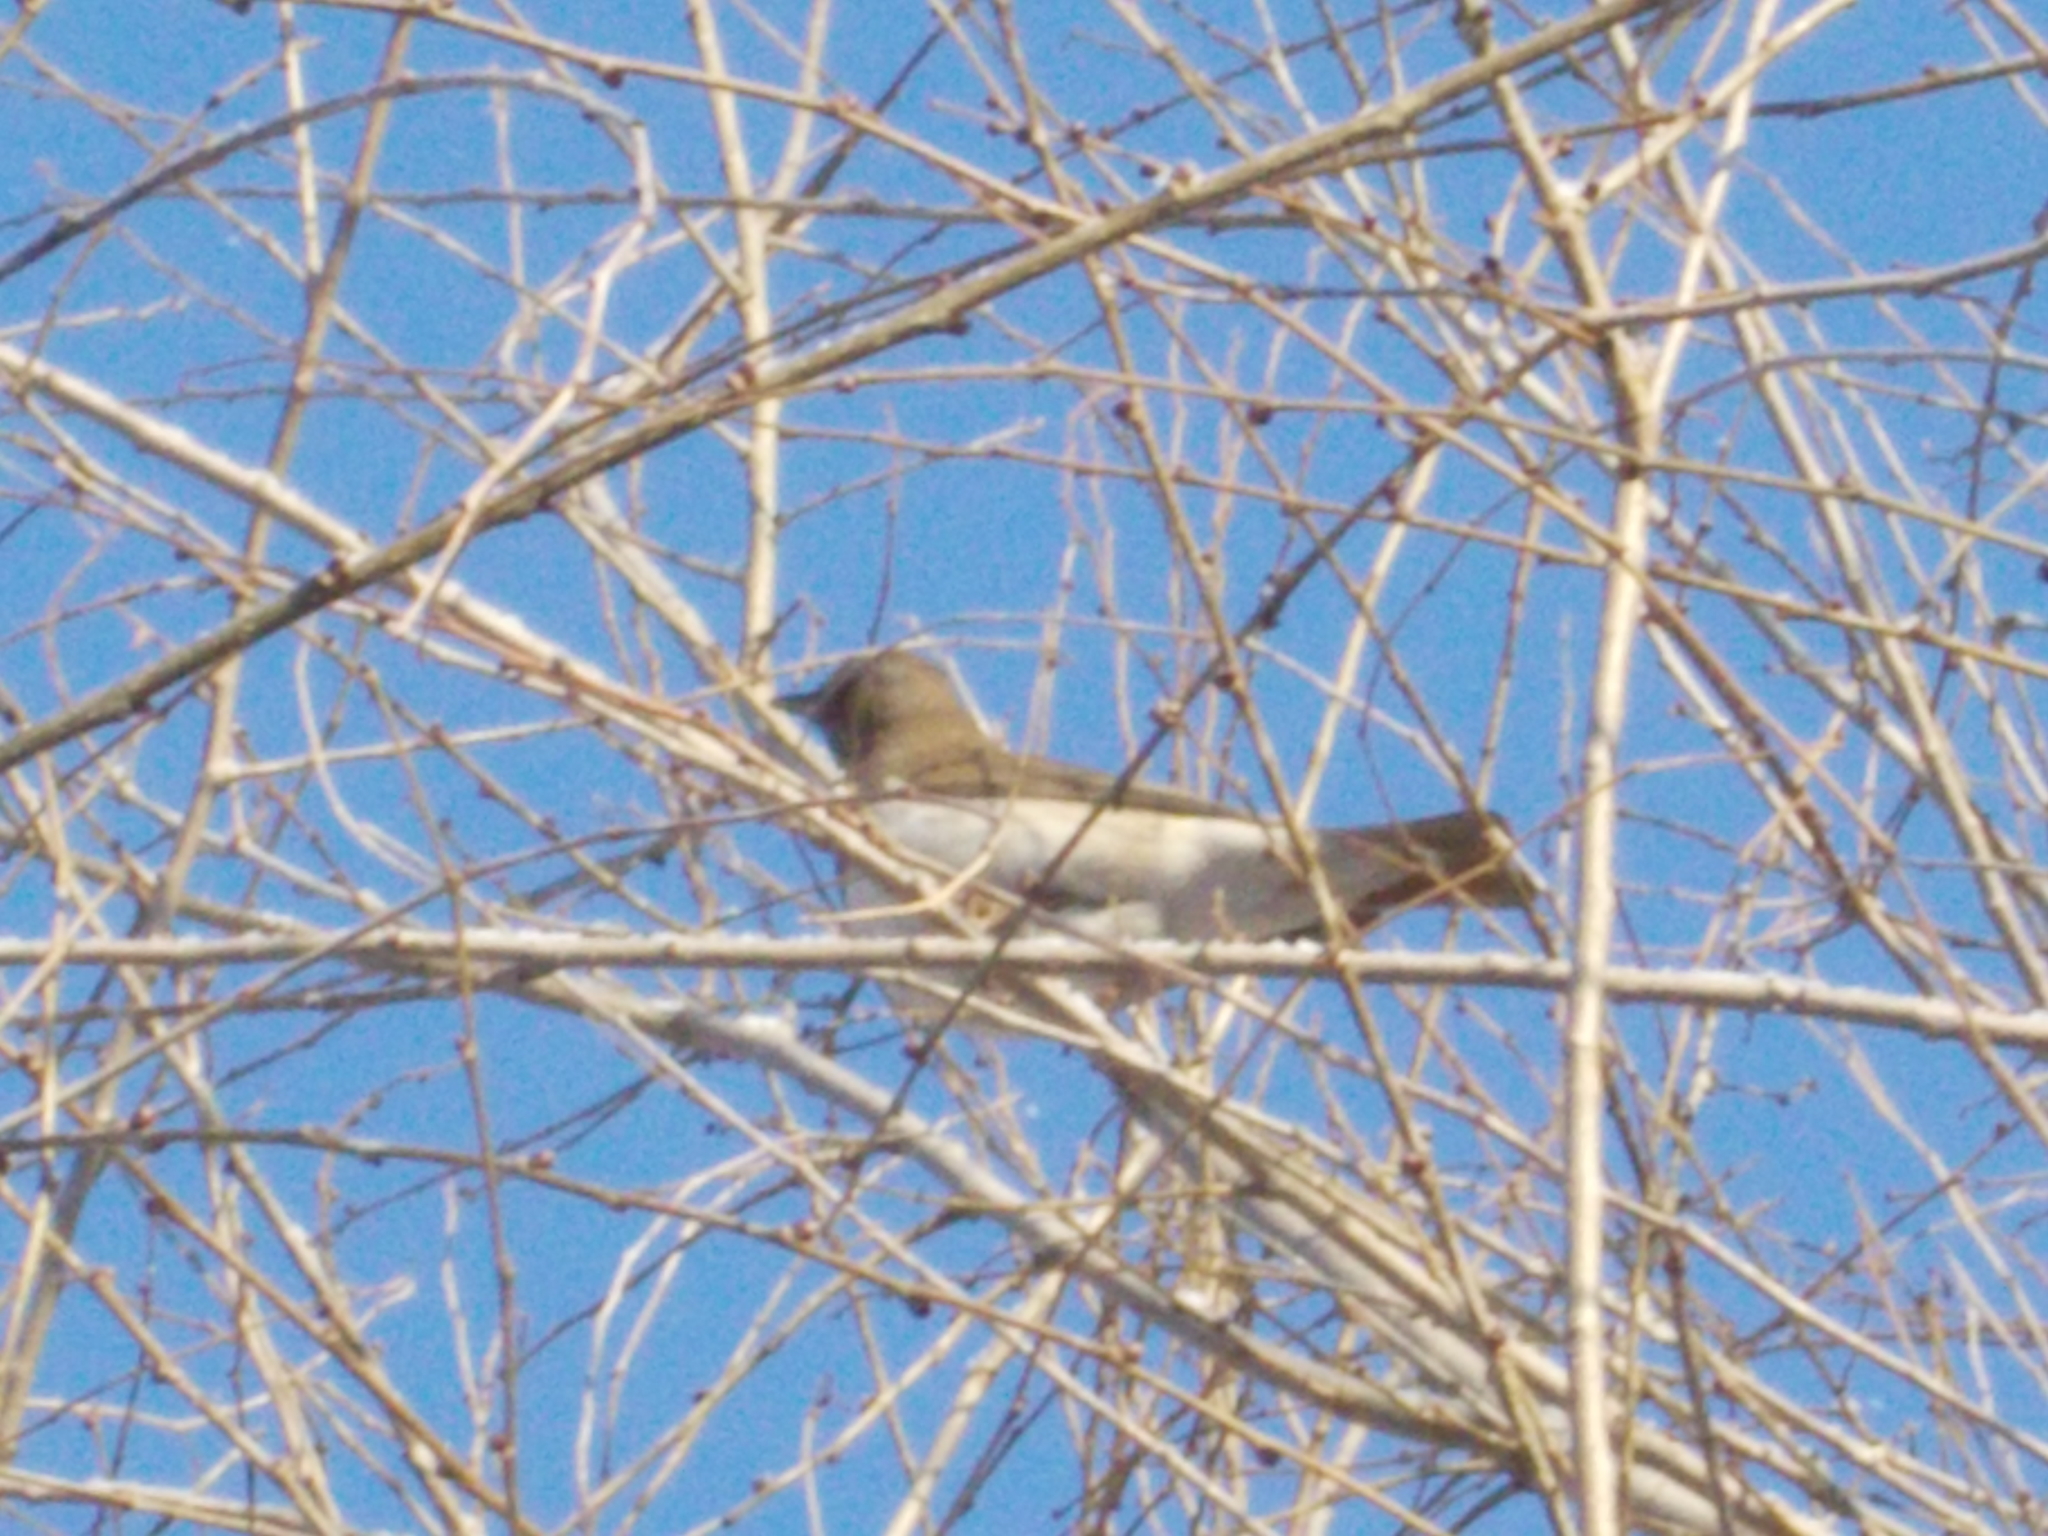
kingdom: Animalia
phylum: Chordata
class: Aves
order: Passeriformes
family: Turdidae
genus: Turdus
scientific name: Turdus atrogularis
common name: Black-throated thrush
